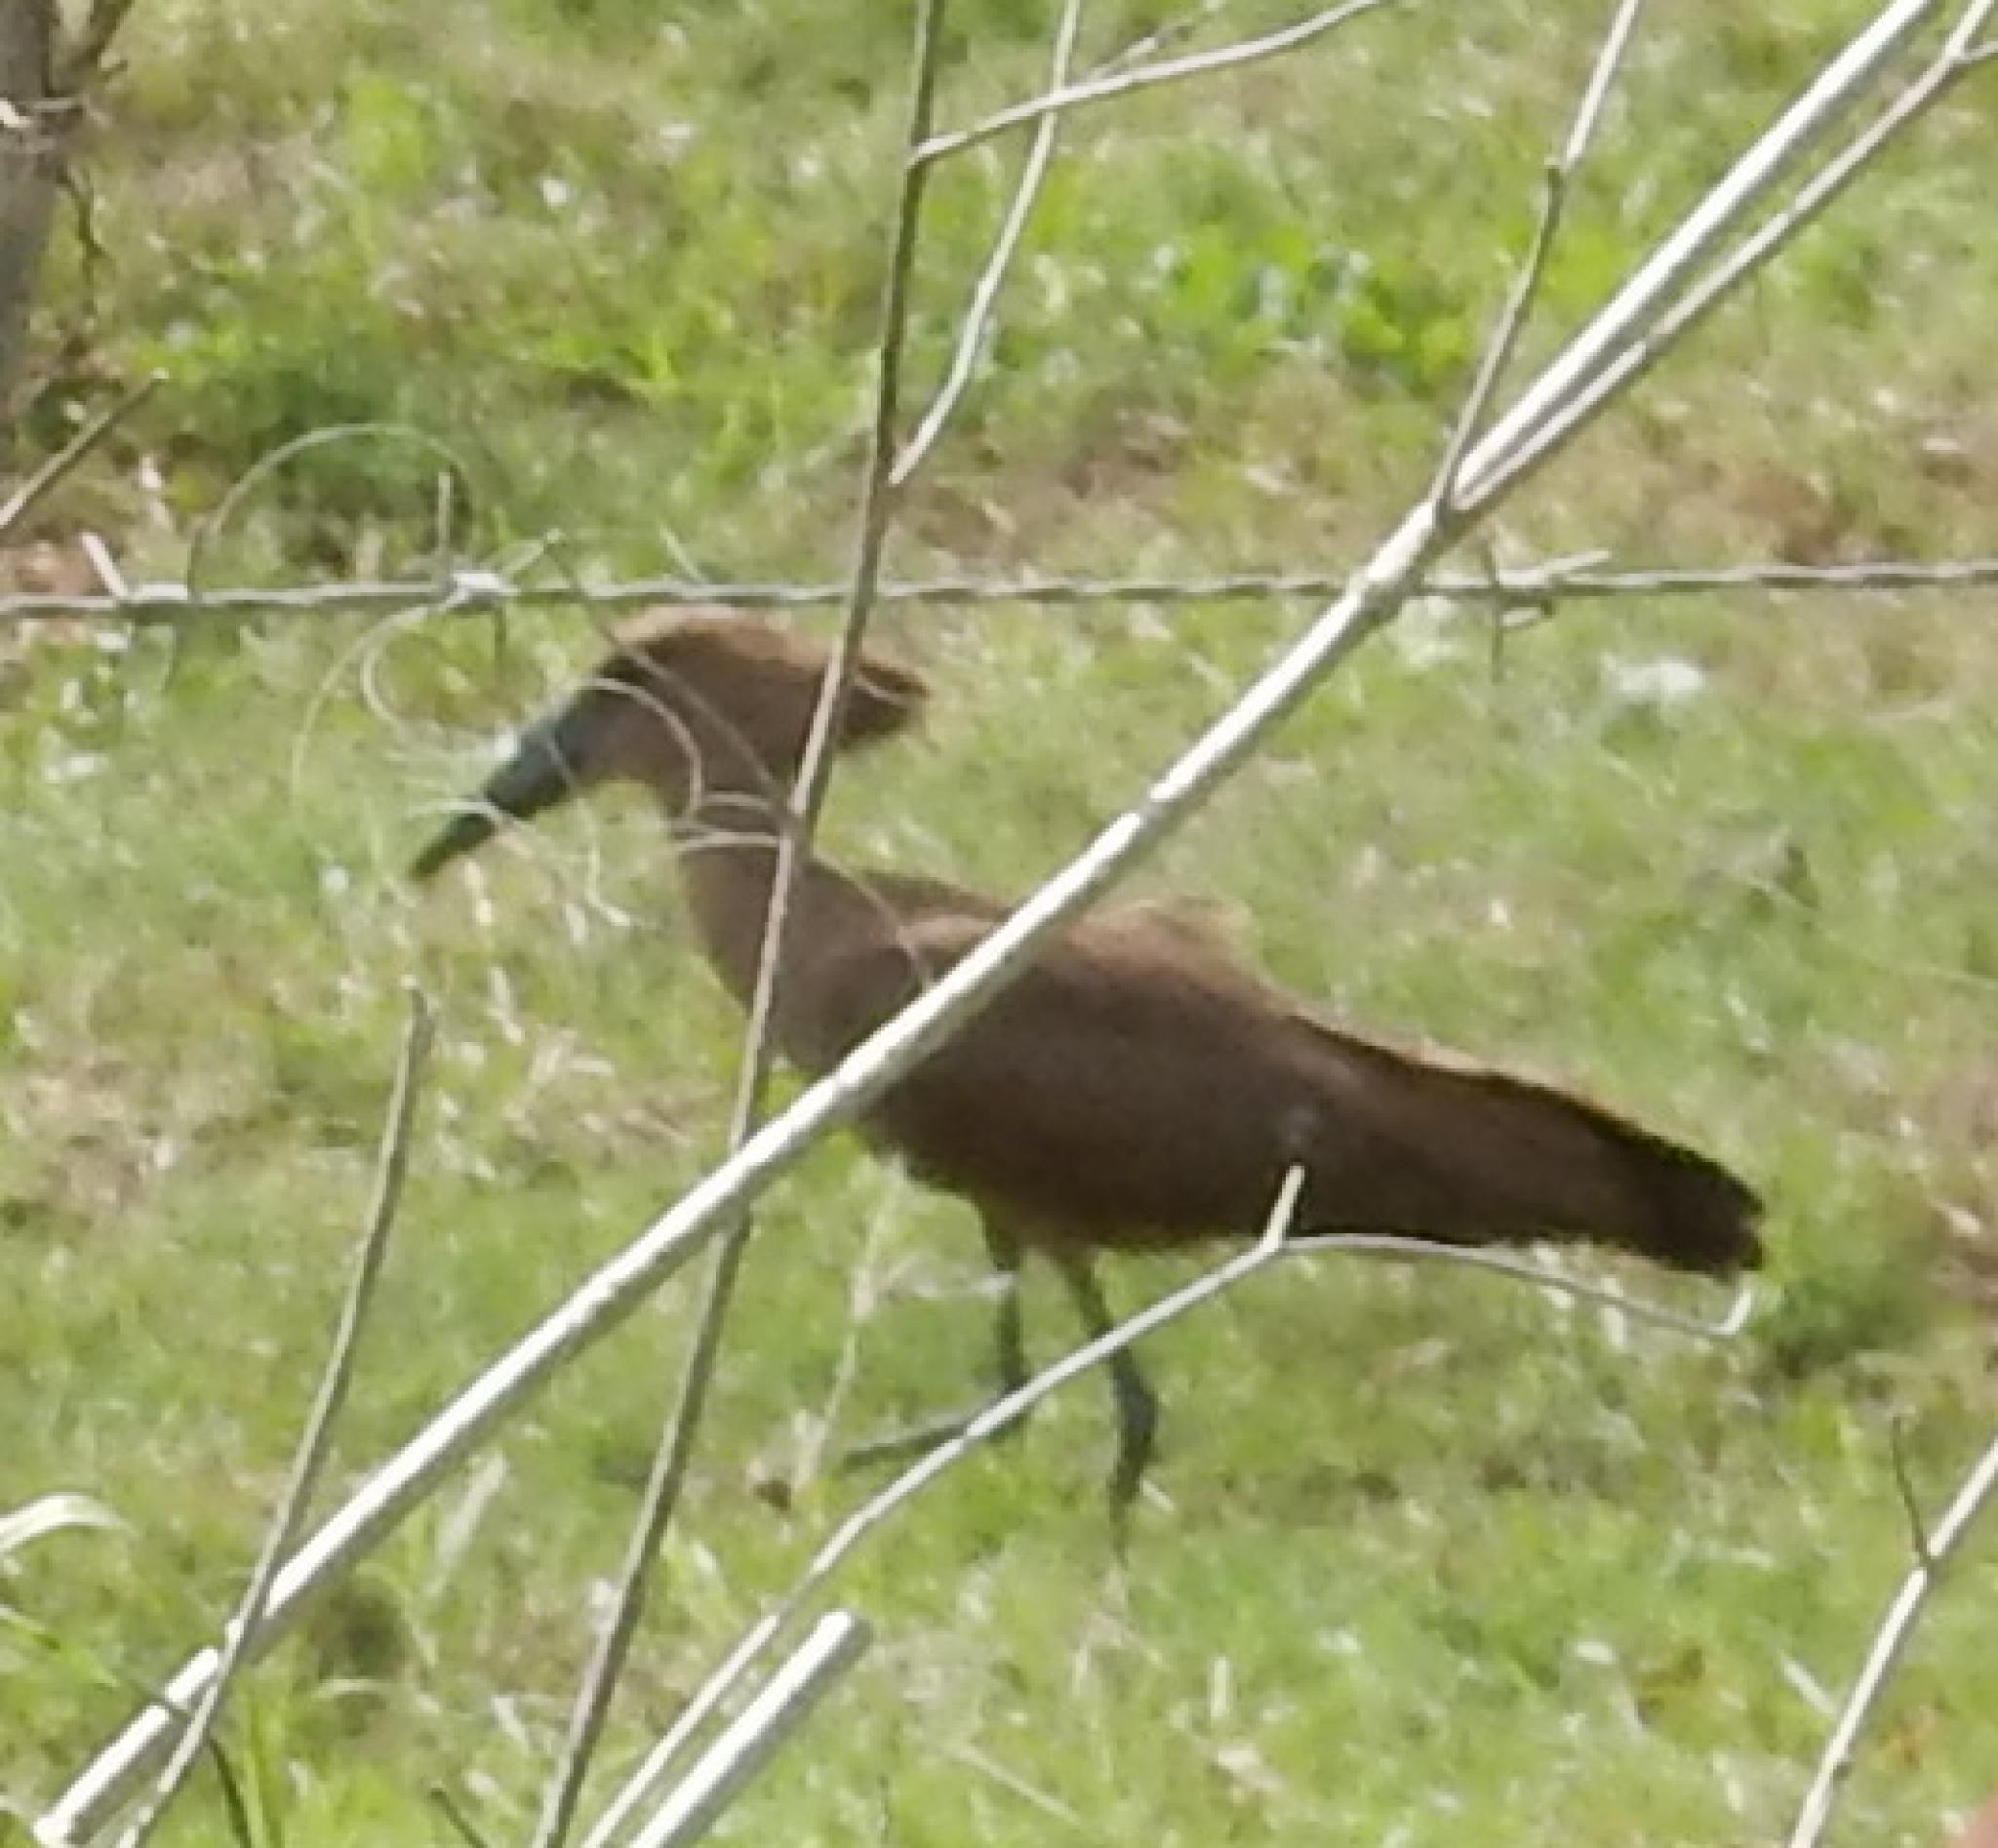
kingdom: Animalia
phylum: Chordata
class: Aves
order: Pelecaniformes
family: Scopidae
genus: Scopus
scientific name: Scopus umbretta
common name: Hamerkop
